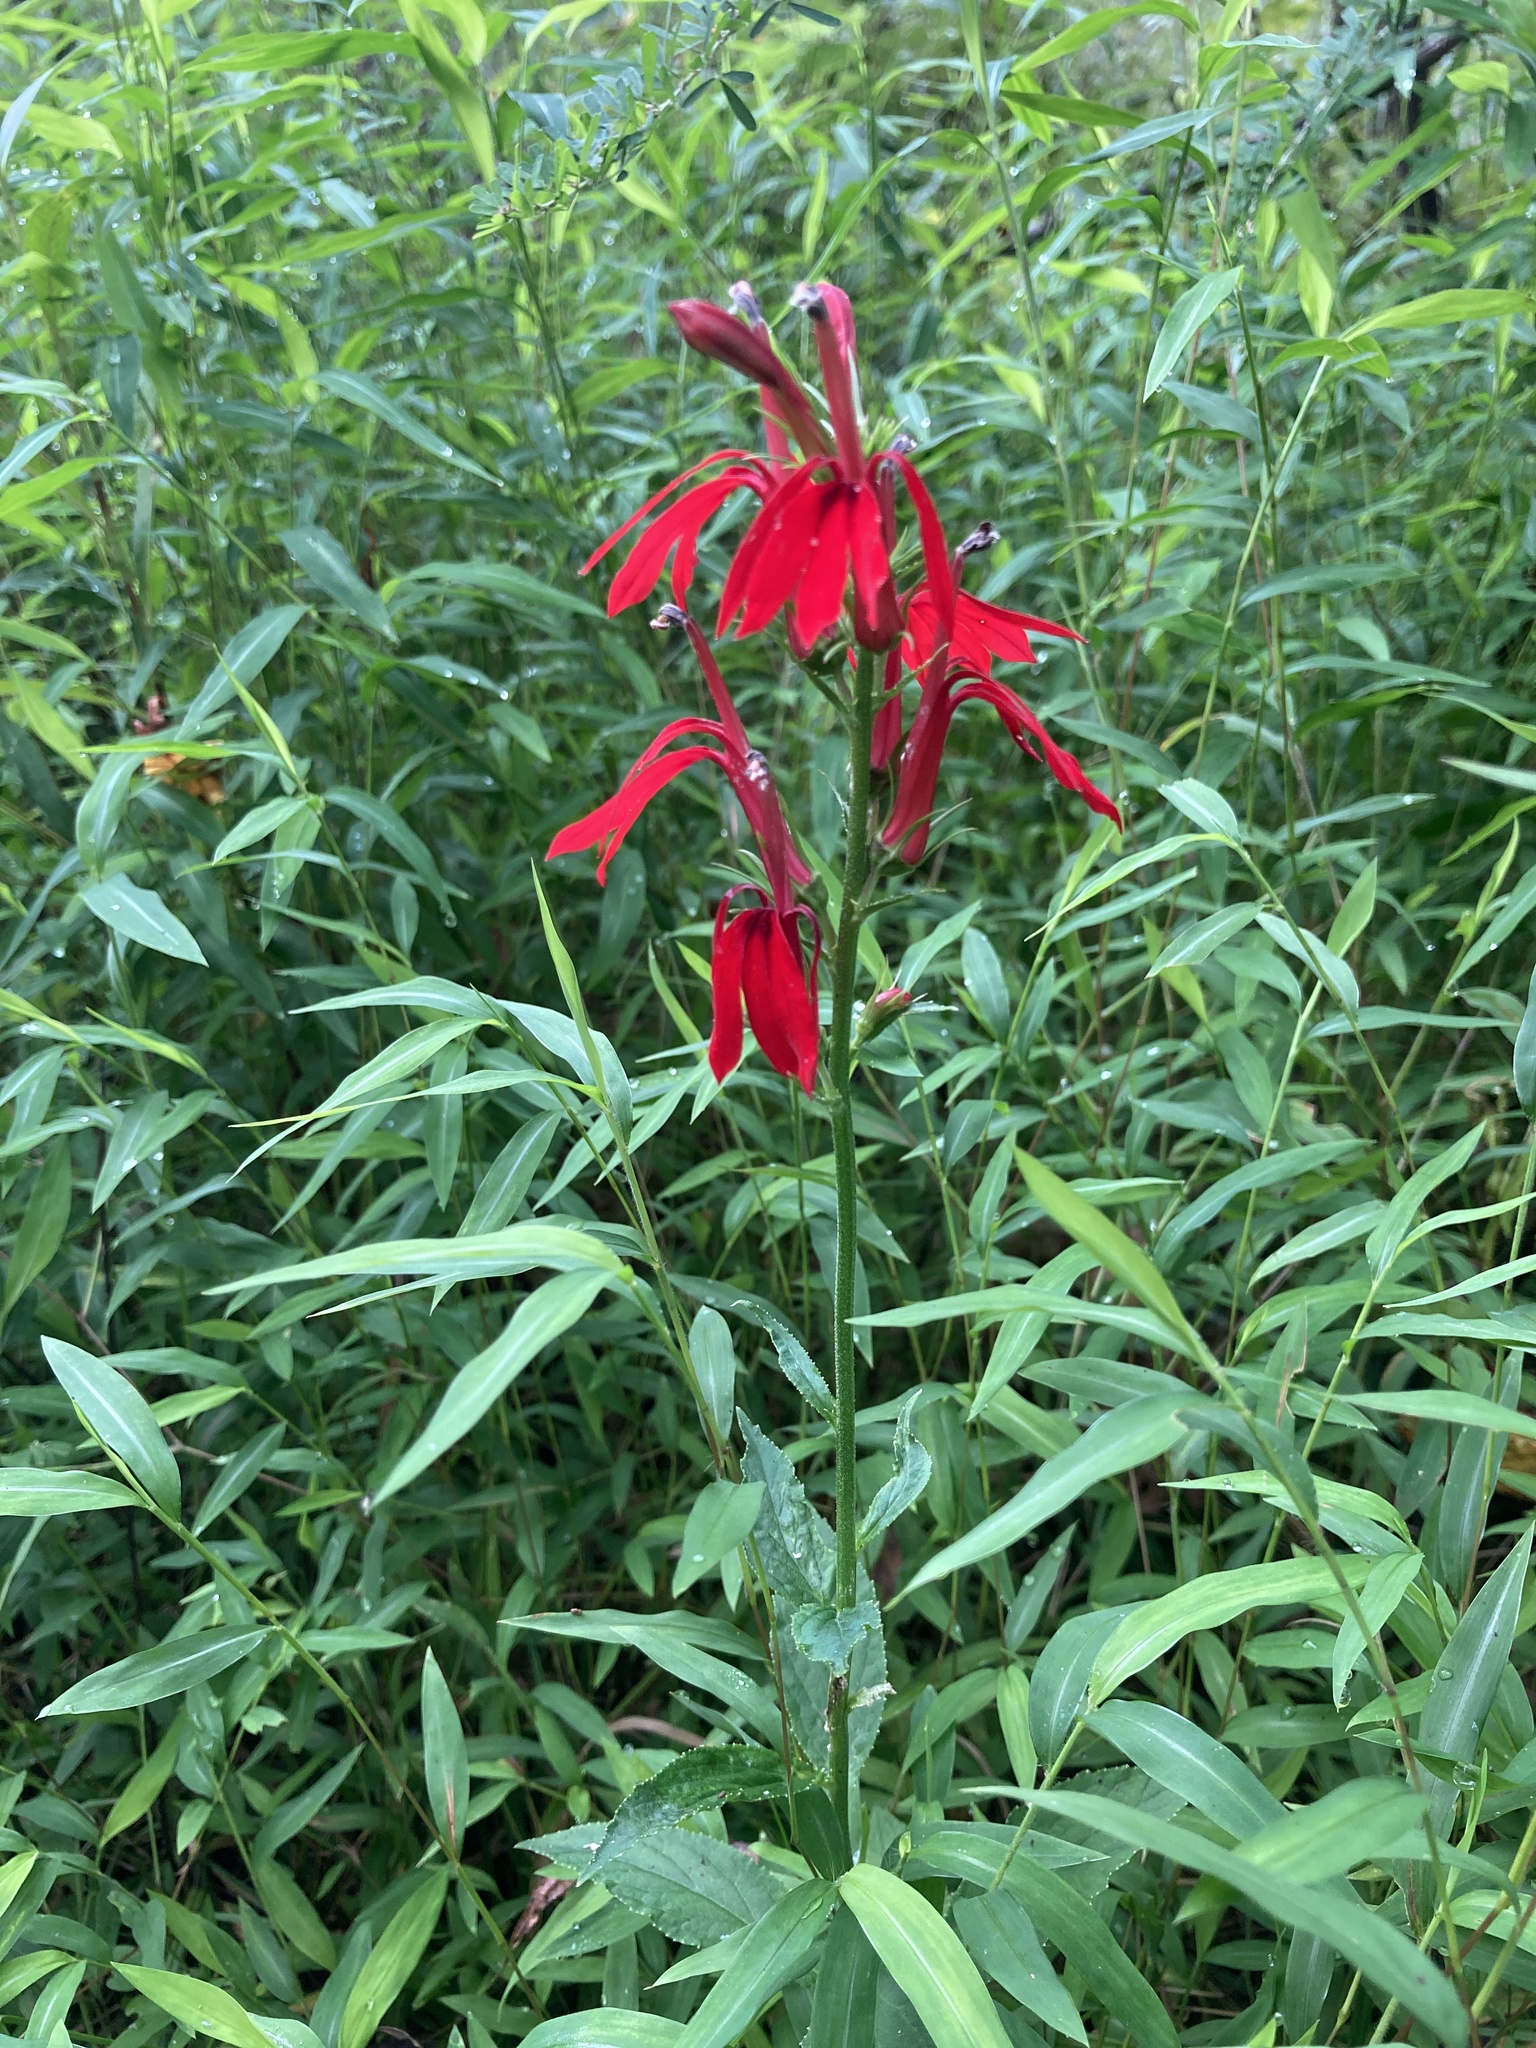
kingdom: Plantae
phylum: Tracheophyta
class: Magnoliopsida
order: Asterales
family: Campanulaceae
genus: Lobelia
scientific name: Lobelia cardinalis
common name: Cardinal flower
